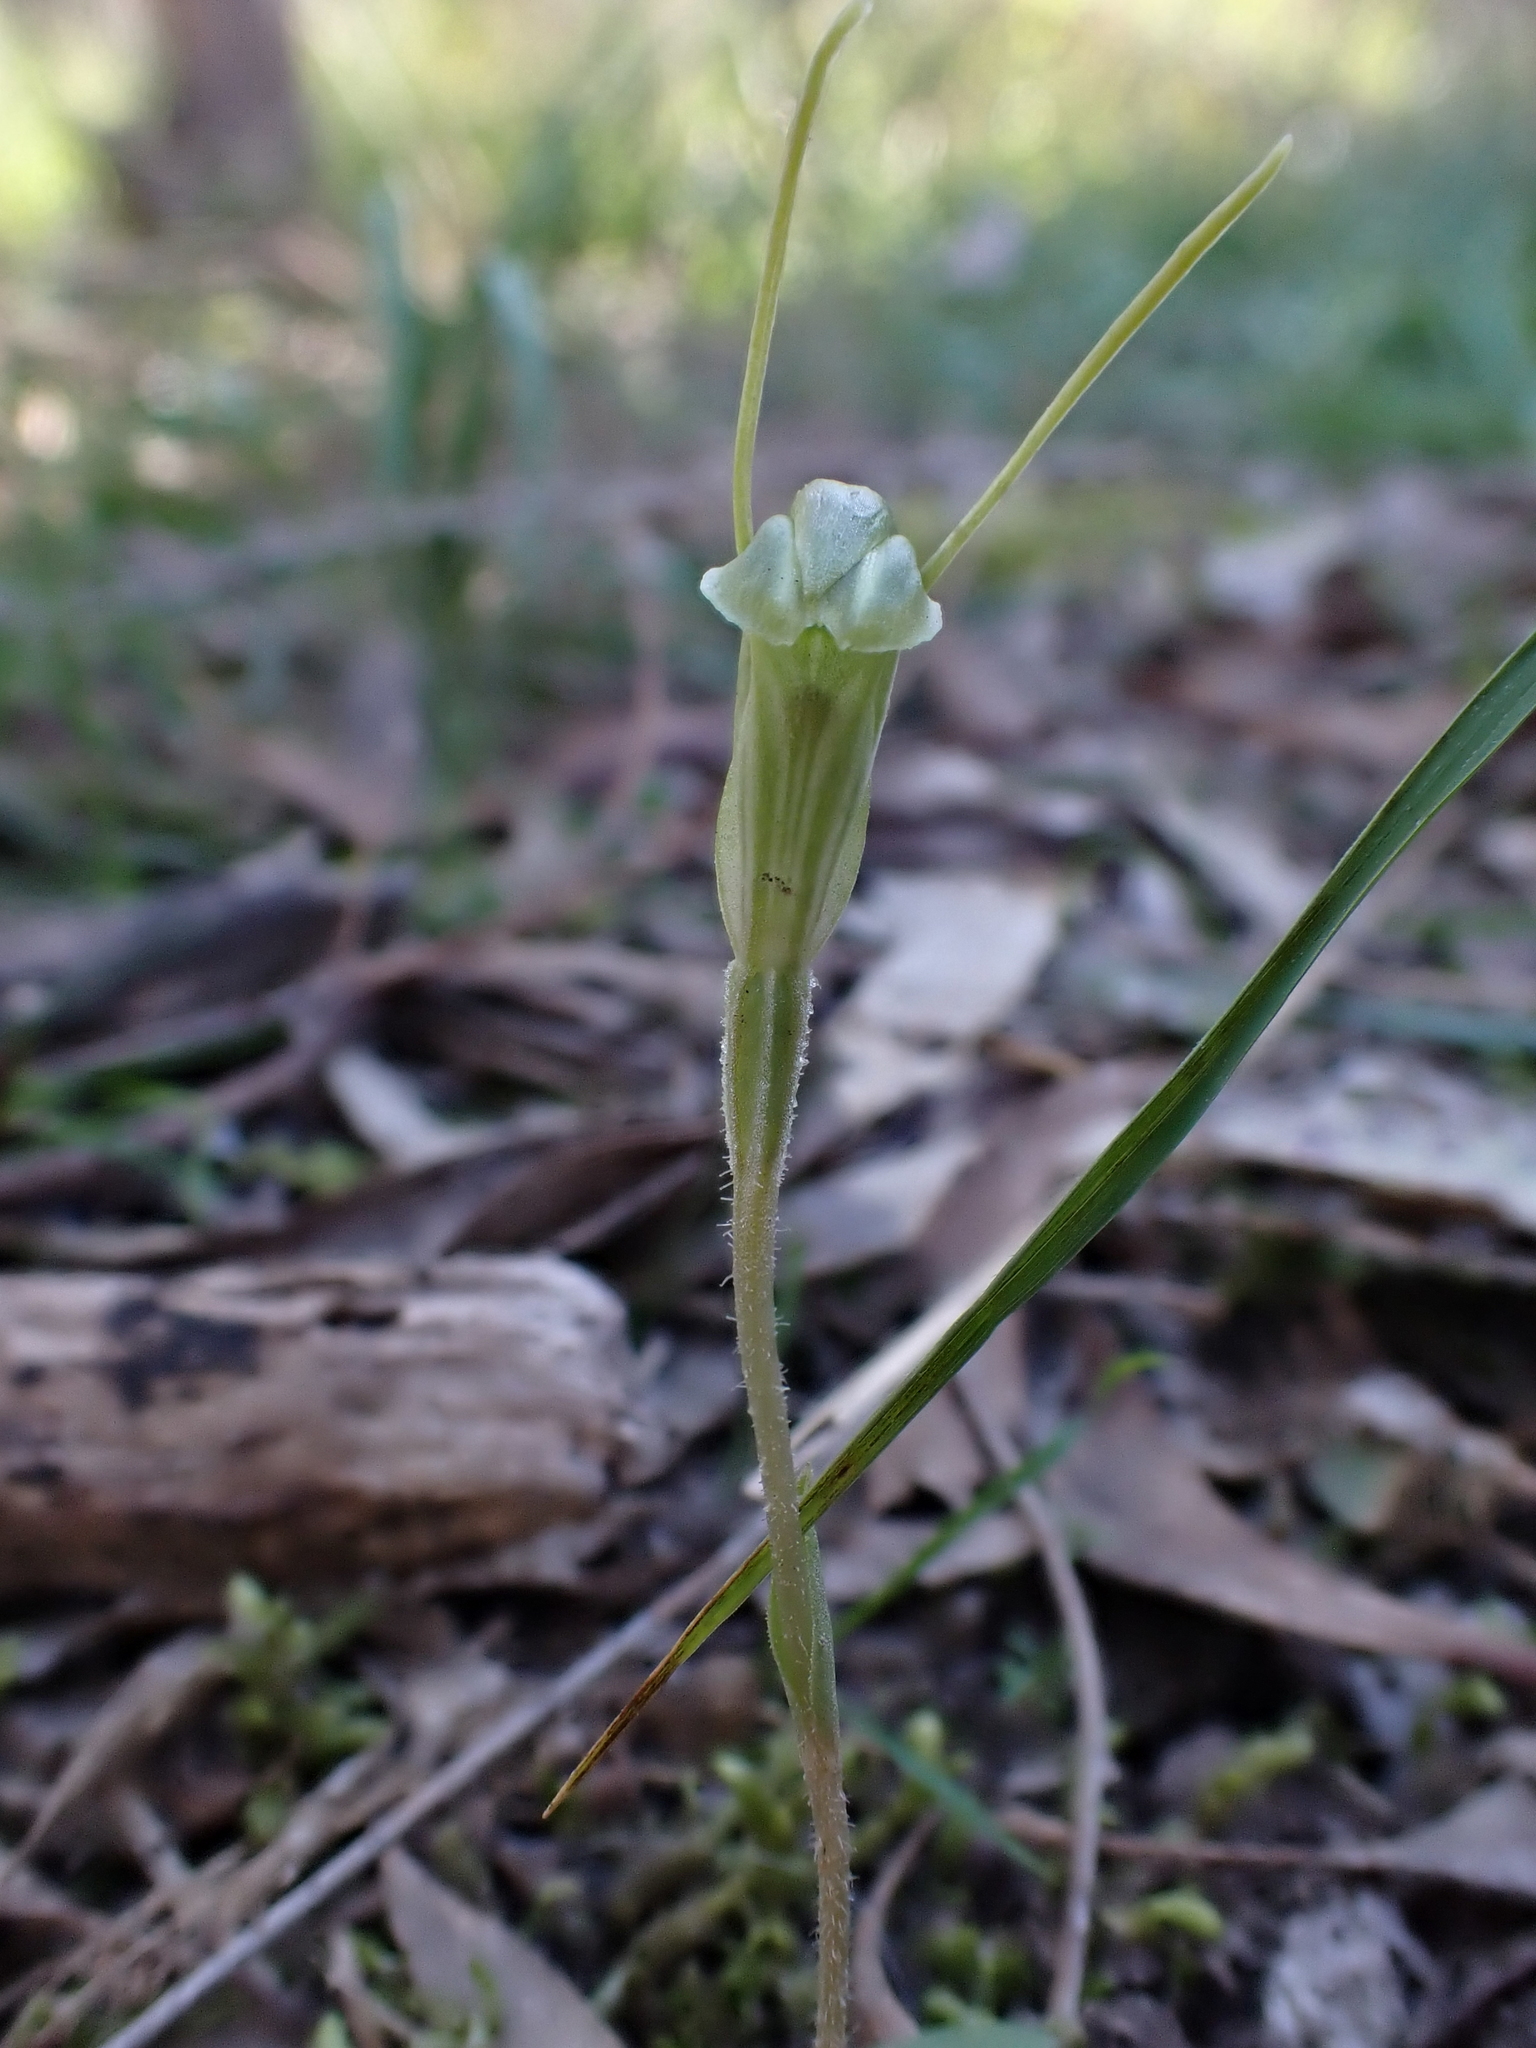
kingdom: Plantae
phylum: Tracheophyta
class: Liliopsida
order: Asparagales
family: Orchidaceae
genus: Pterostylis
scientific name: Pterostylis nana
